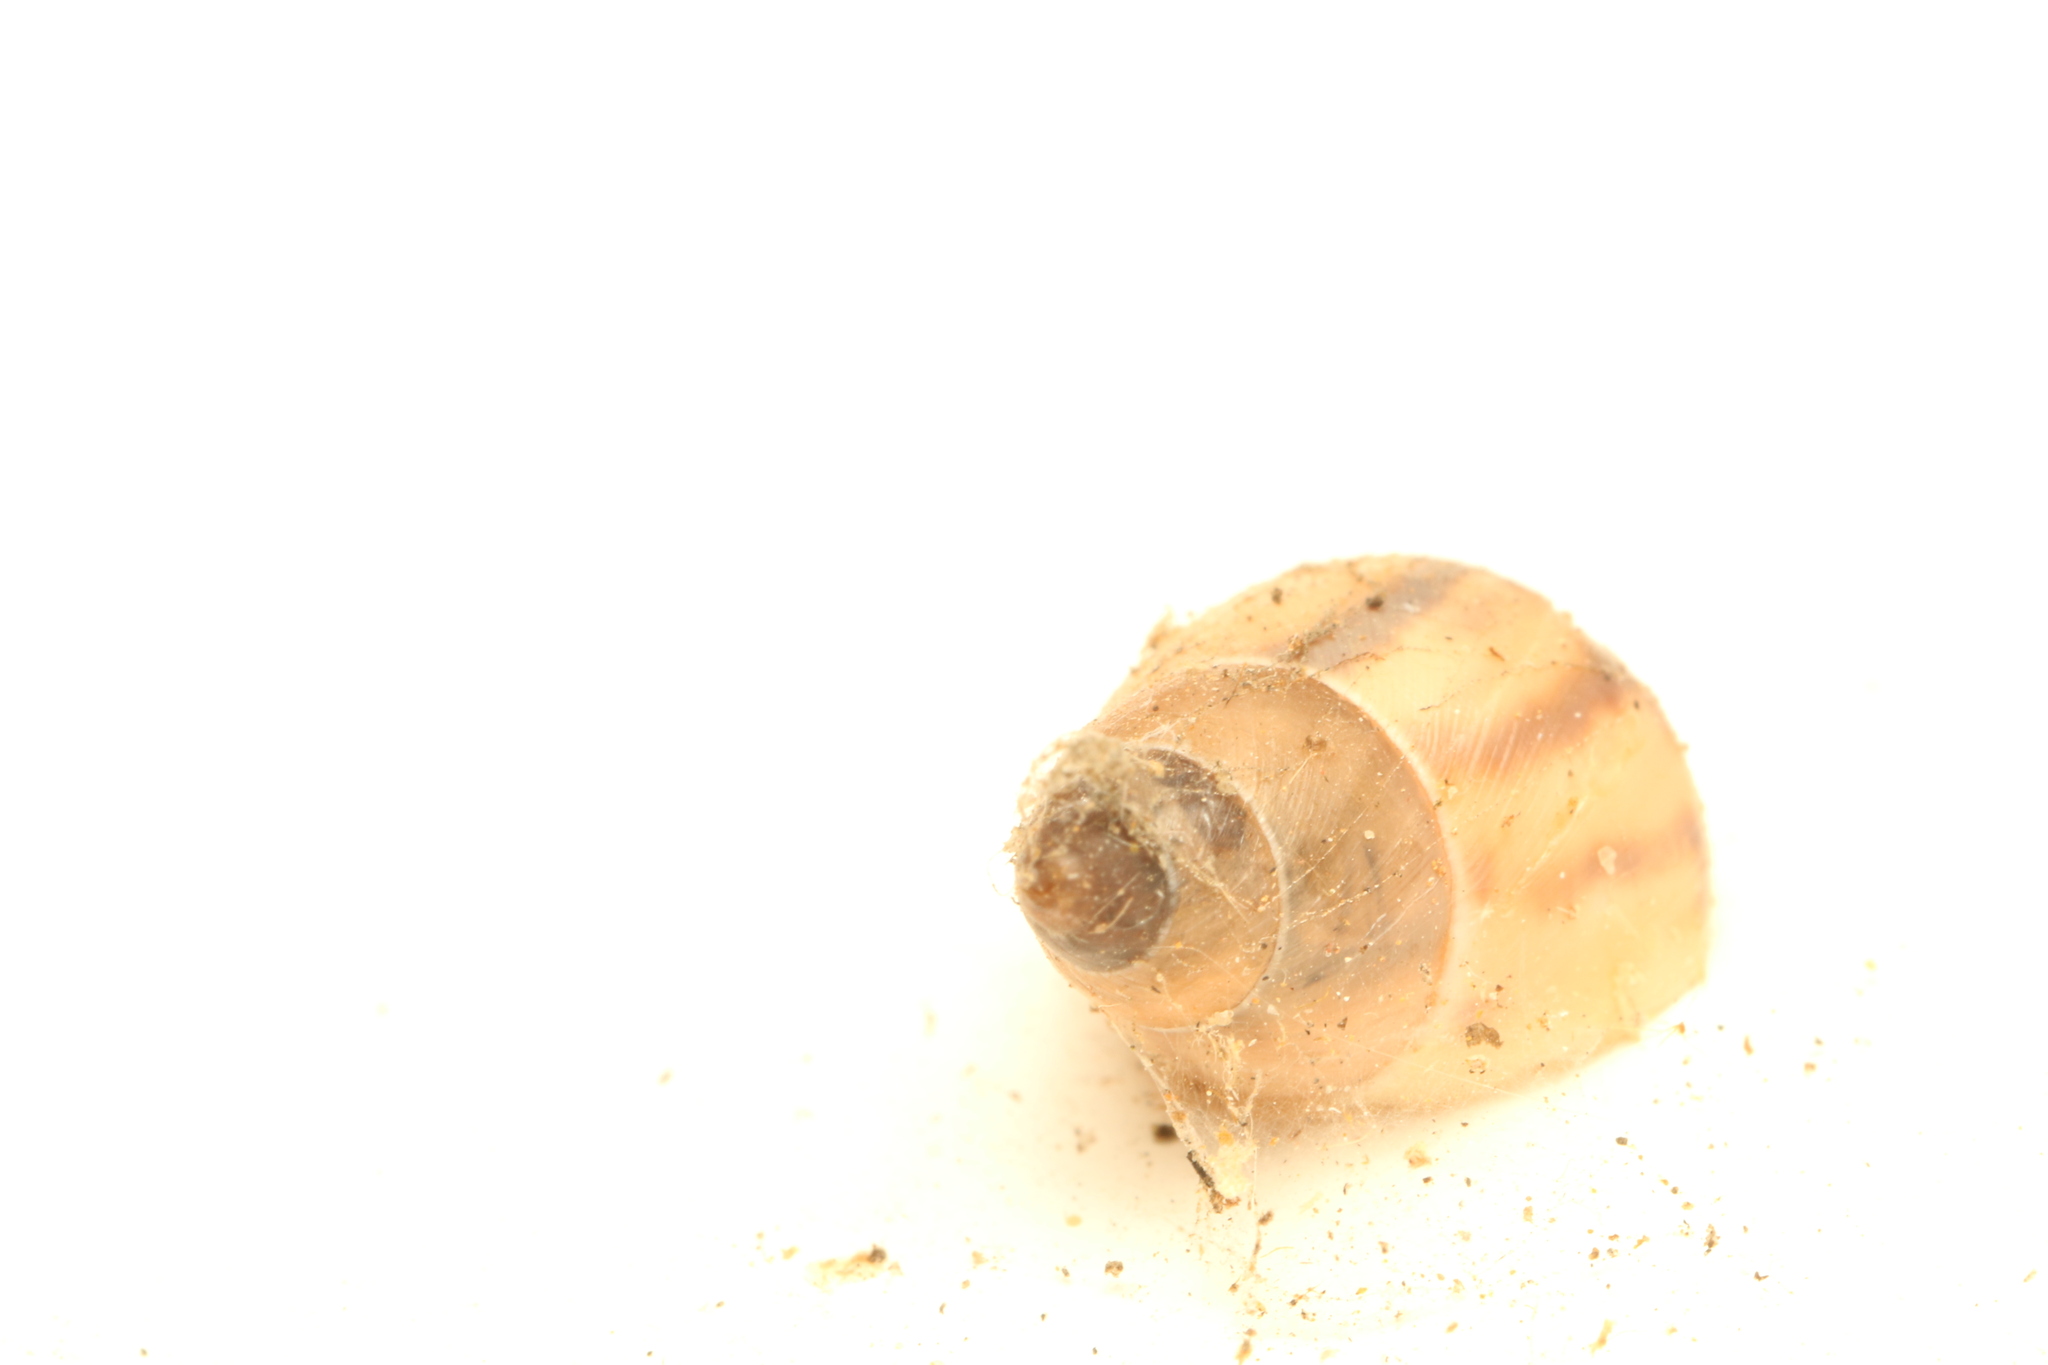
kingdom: Animalia
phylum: Mollusca
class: Gastropoda
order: Stylommatophora
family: Bulimulidae
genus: Drymaeus
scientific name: Drymaeus semistriatus
